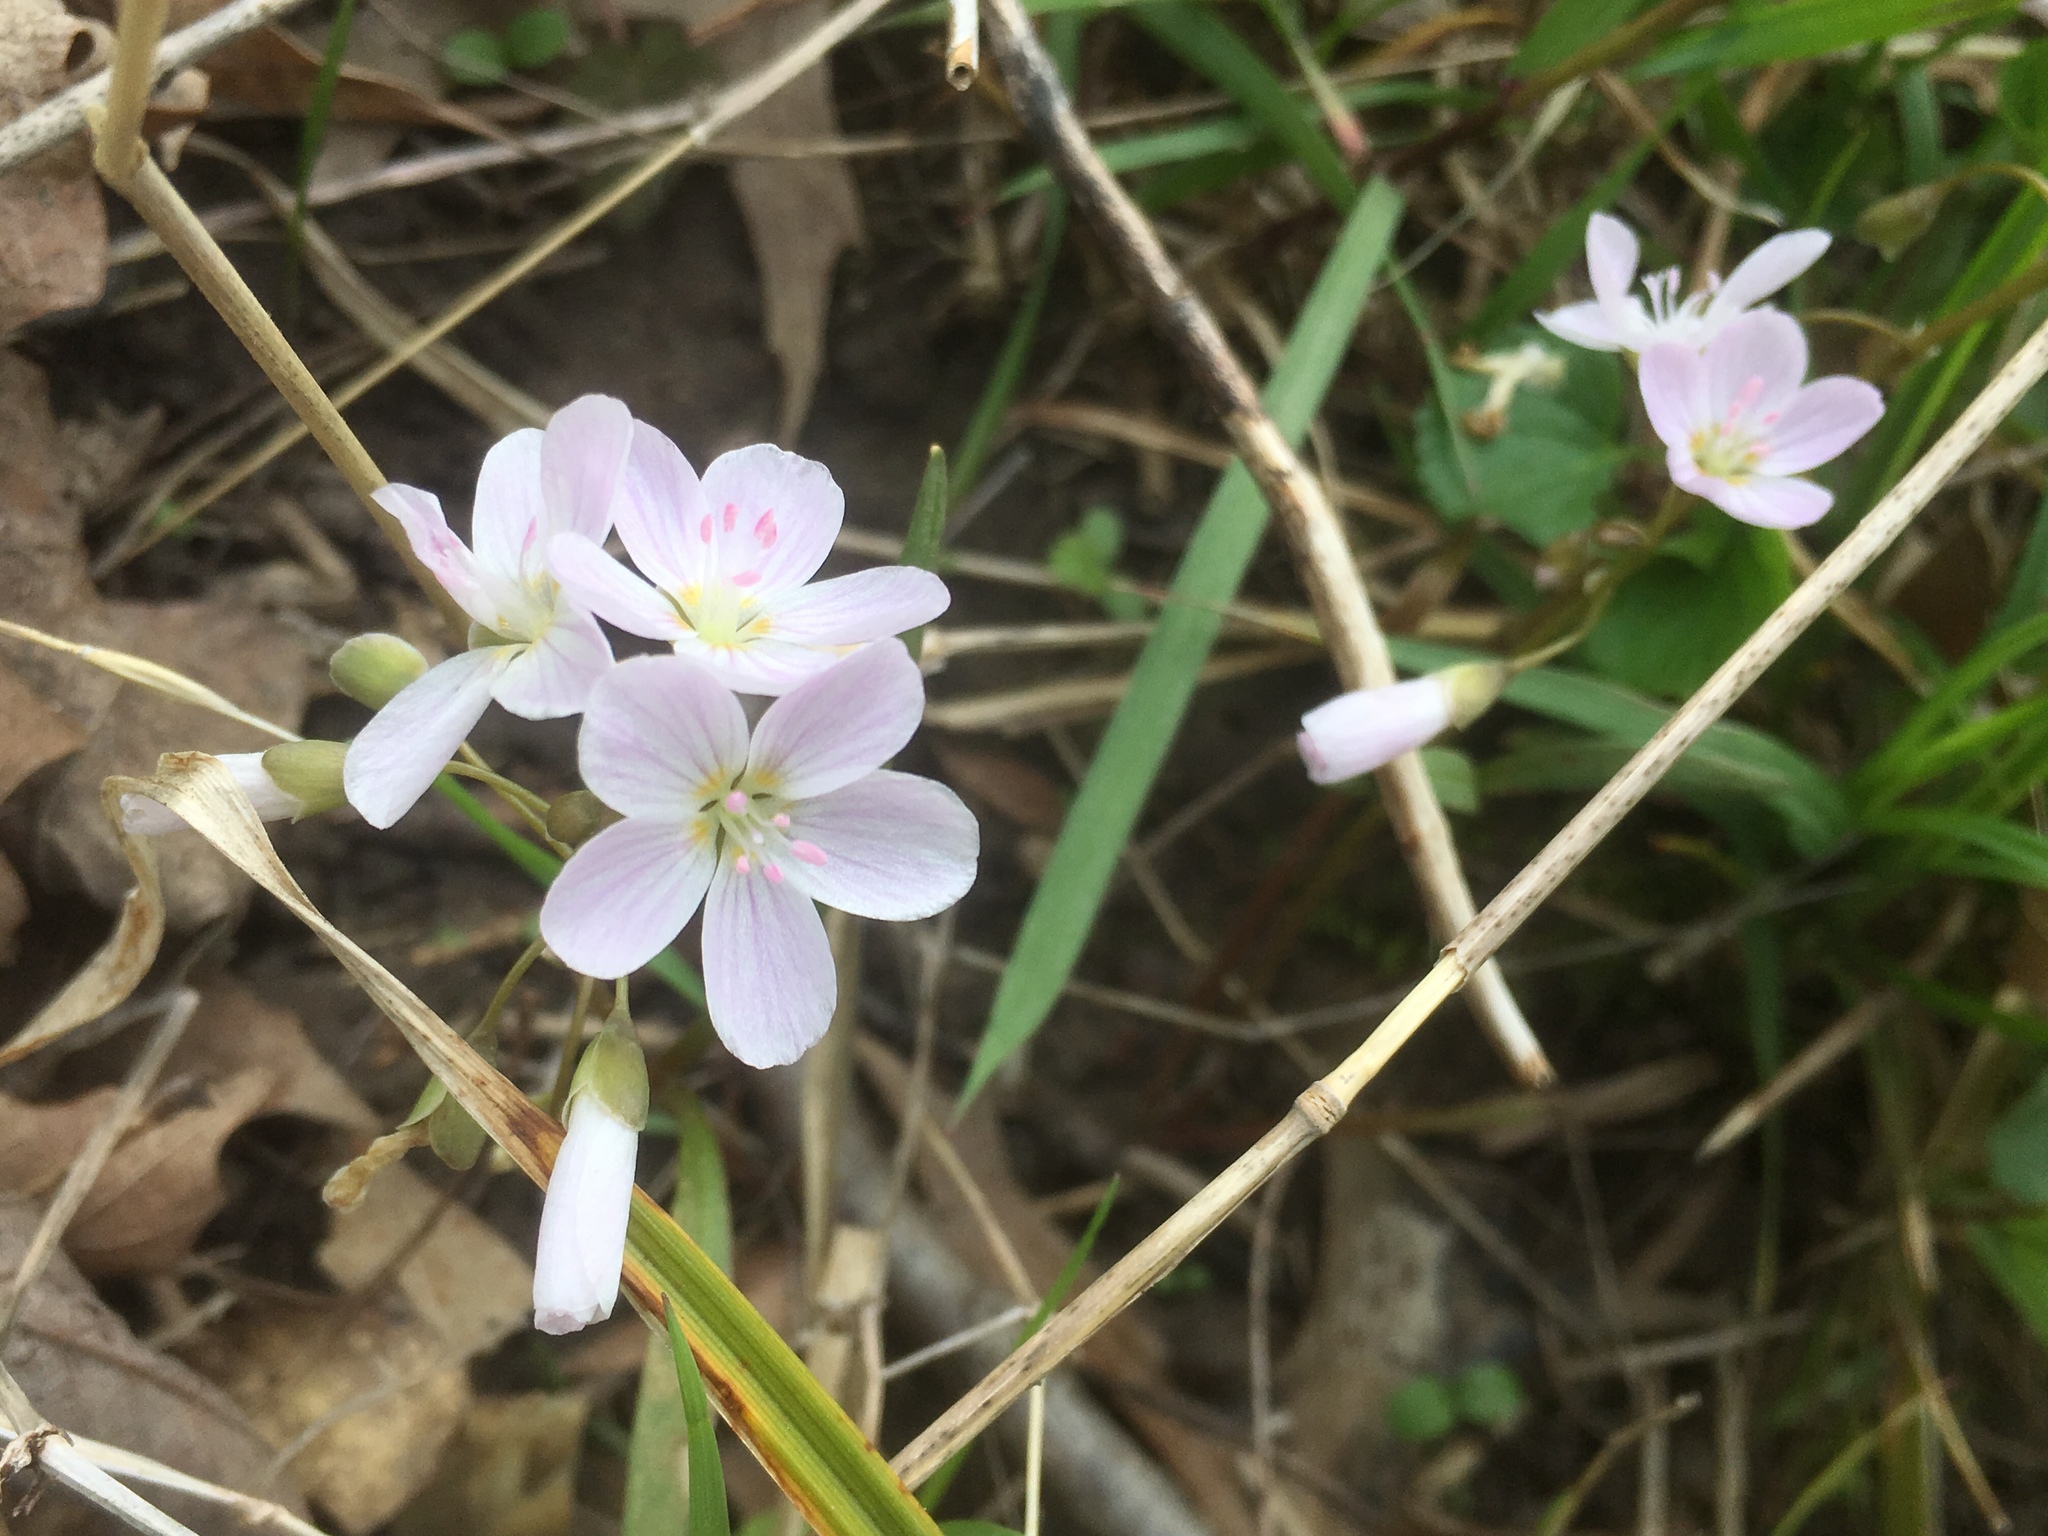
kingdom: Plantae
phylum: Tracheophyta
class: Magnoliopsida
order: Caryophyllales
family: Montiaceae
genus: Claytonia
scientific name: Claytonia virginica
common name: Virginia springbeauty
